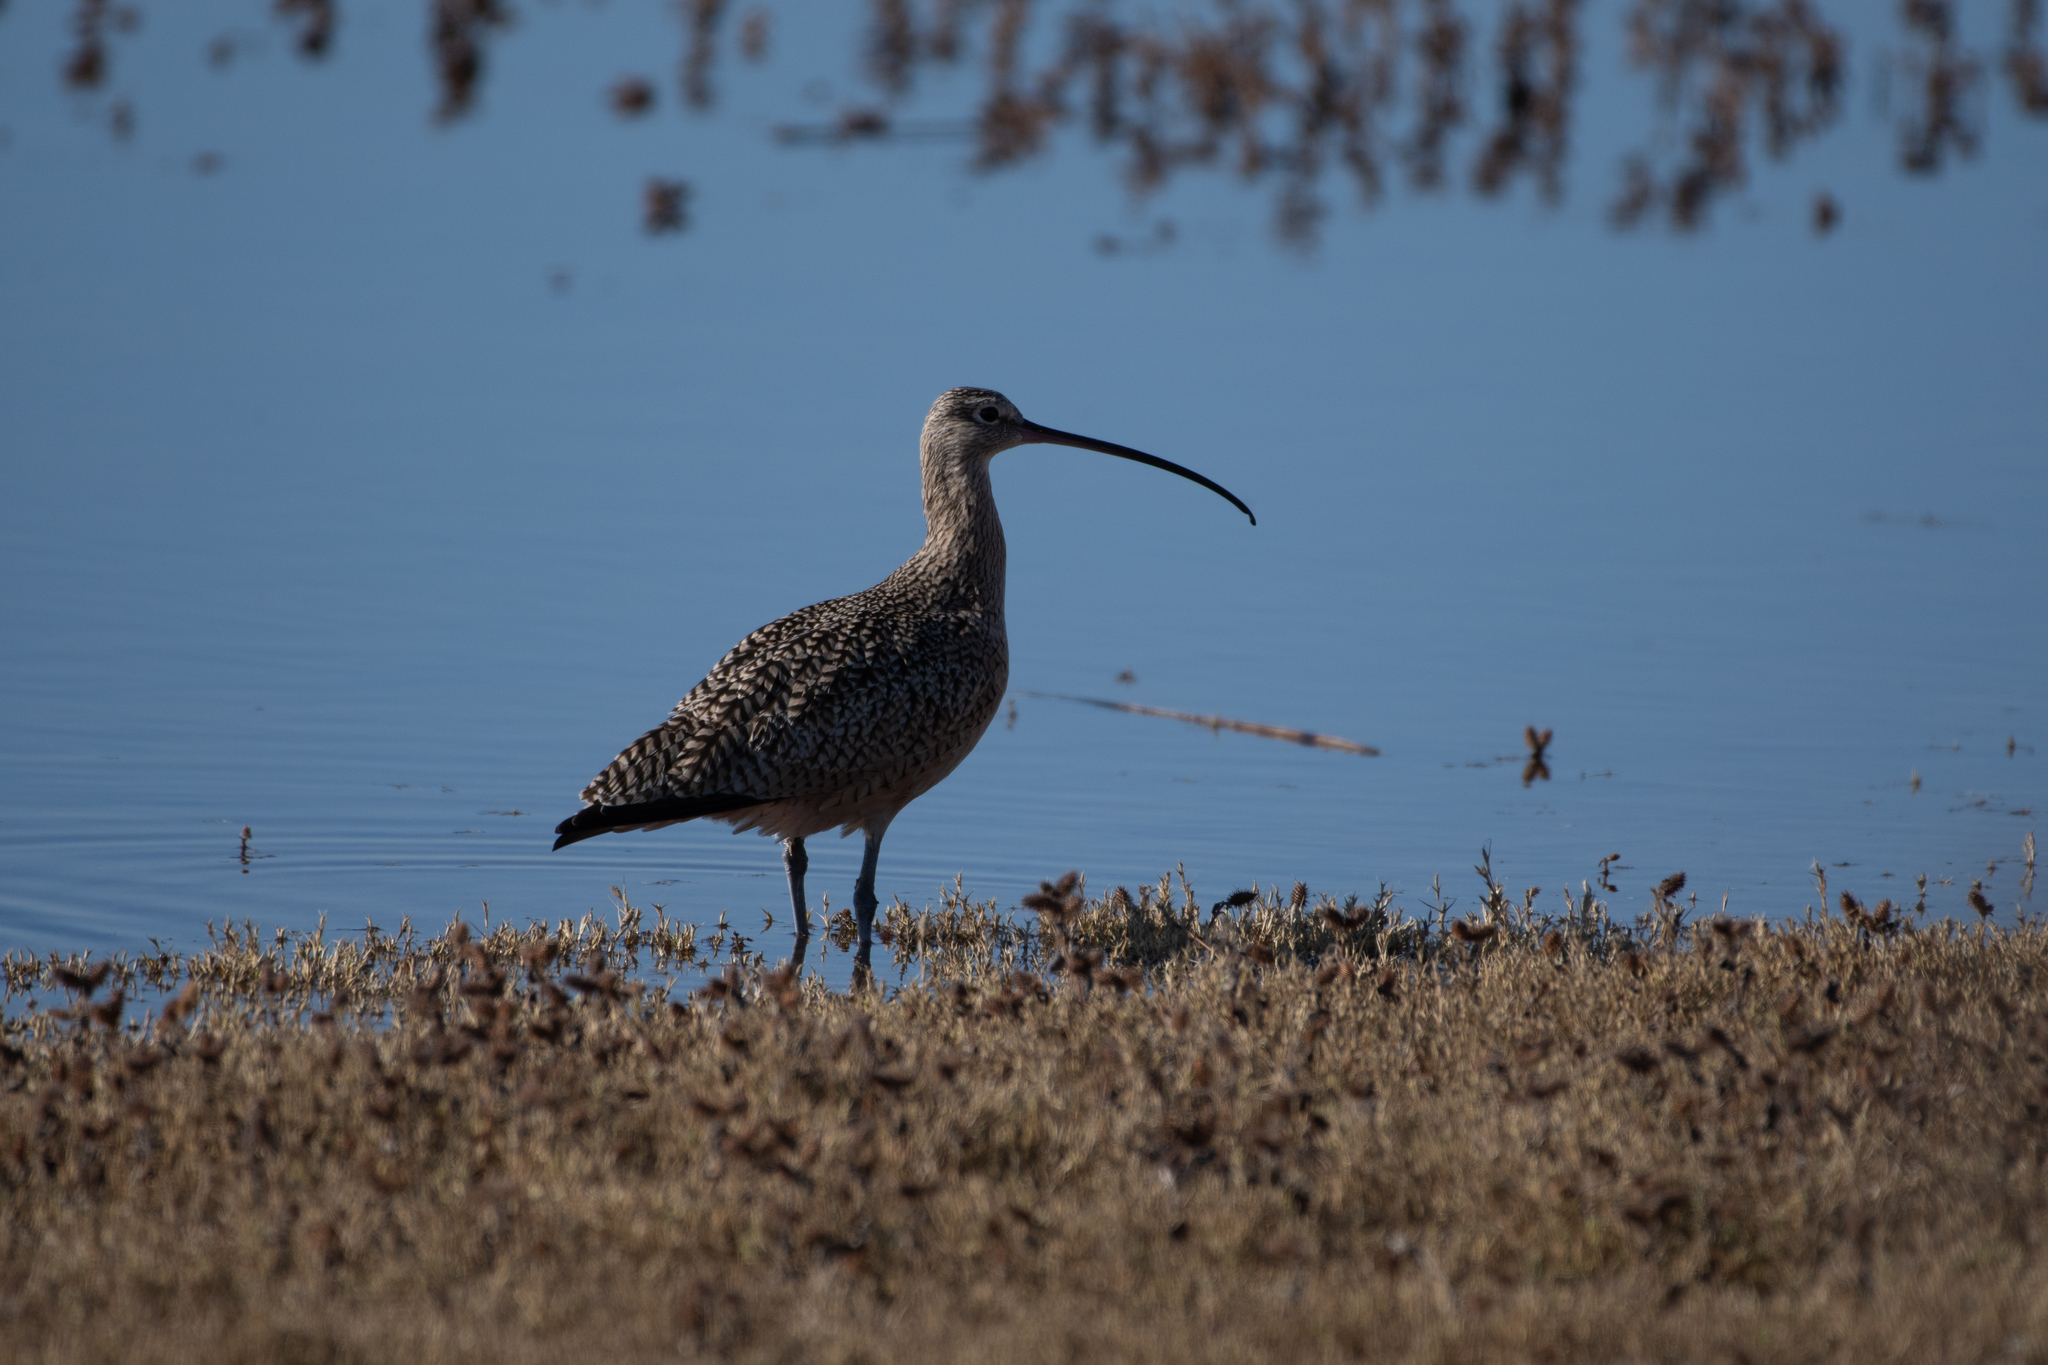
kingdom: Animalia
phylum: Chordata
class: Aves
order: Charadriiformes
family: Scolopacidae
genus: Numenius
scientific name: Numenius americanus
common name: Long-billed curlew
